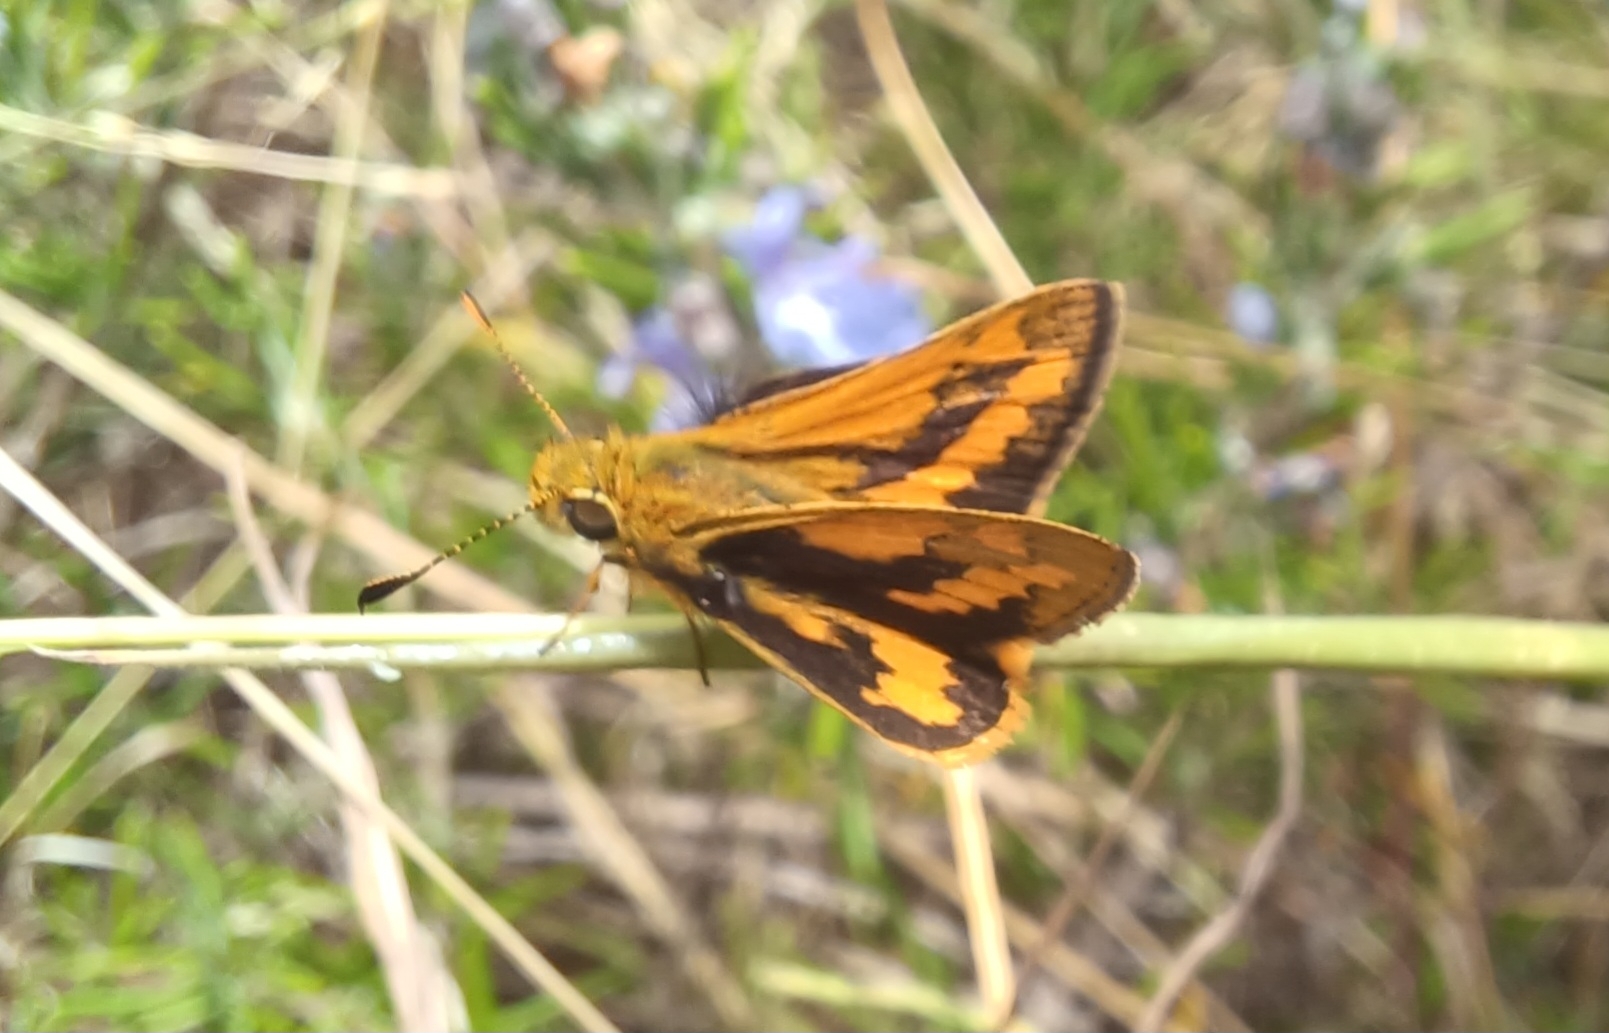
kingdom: Animalia
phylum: Arthropoda
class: Insecta
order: Lepidoptera
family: Hesperiidae
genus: Ocybadistes
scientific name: Ocybadistes walkeri
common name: Yellow-banded dart
